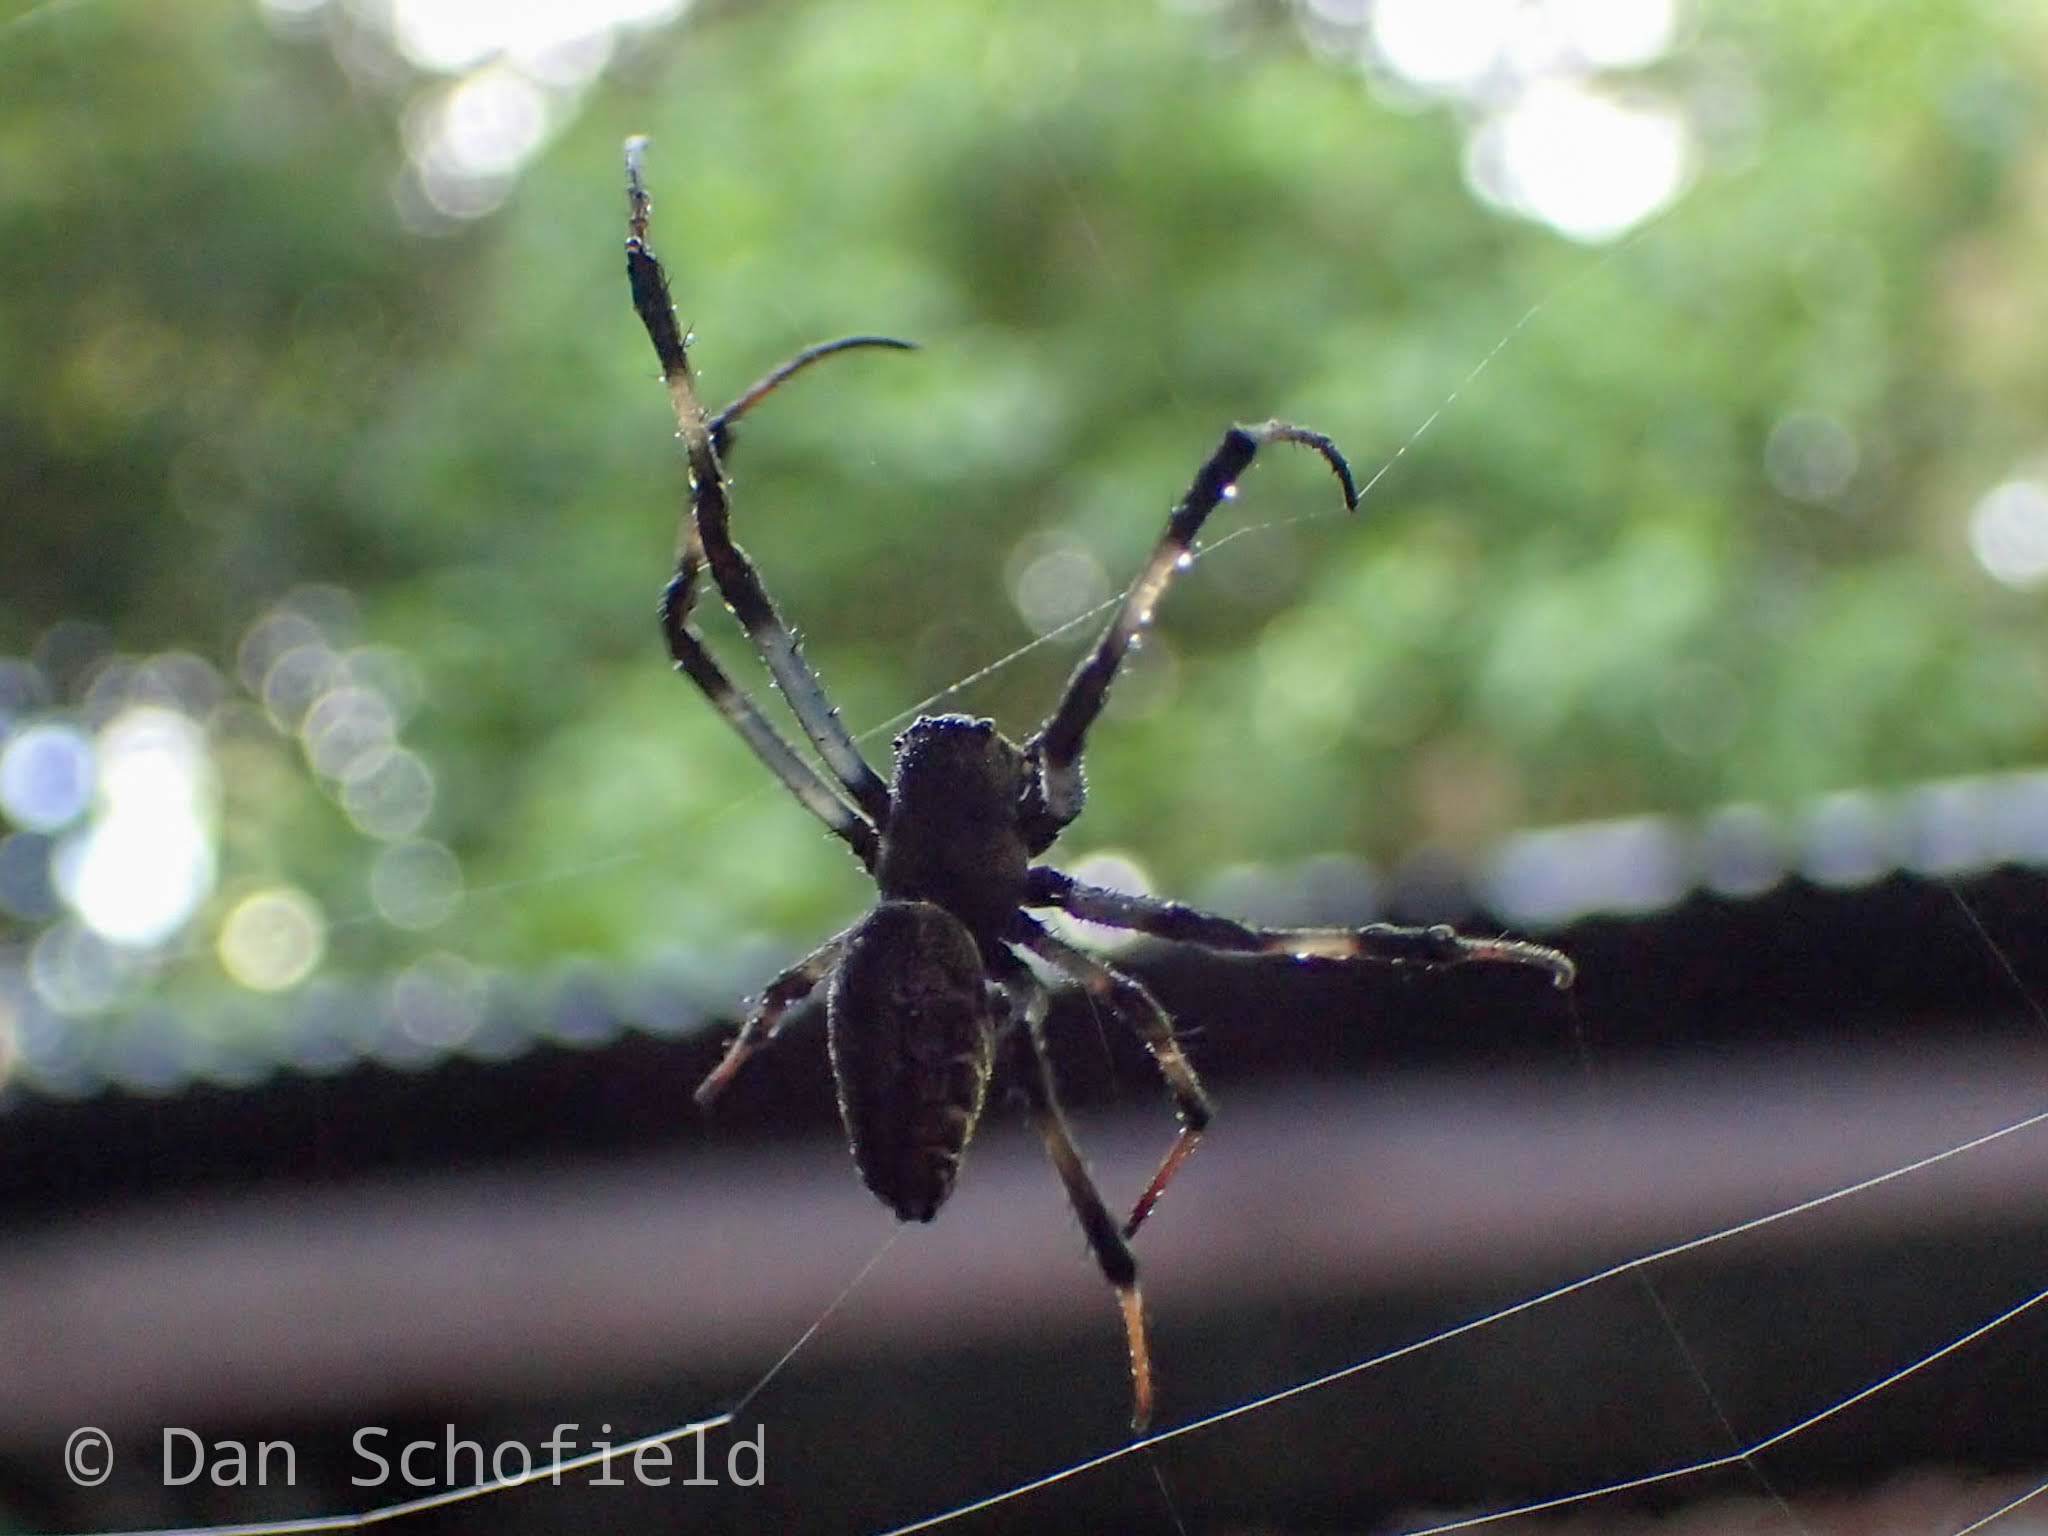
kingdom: Animalia
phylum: Arthropoda
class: Arachnida
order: Araneae
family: Araneidae
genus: Nephilengys
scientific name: Nephilengys malabarensis
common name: Asian hermit spider
